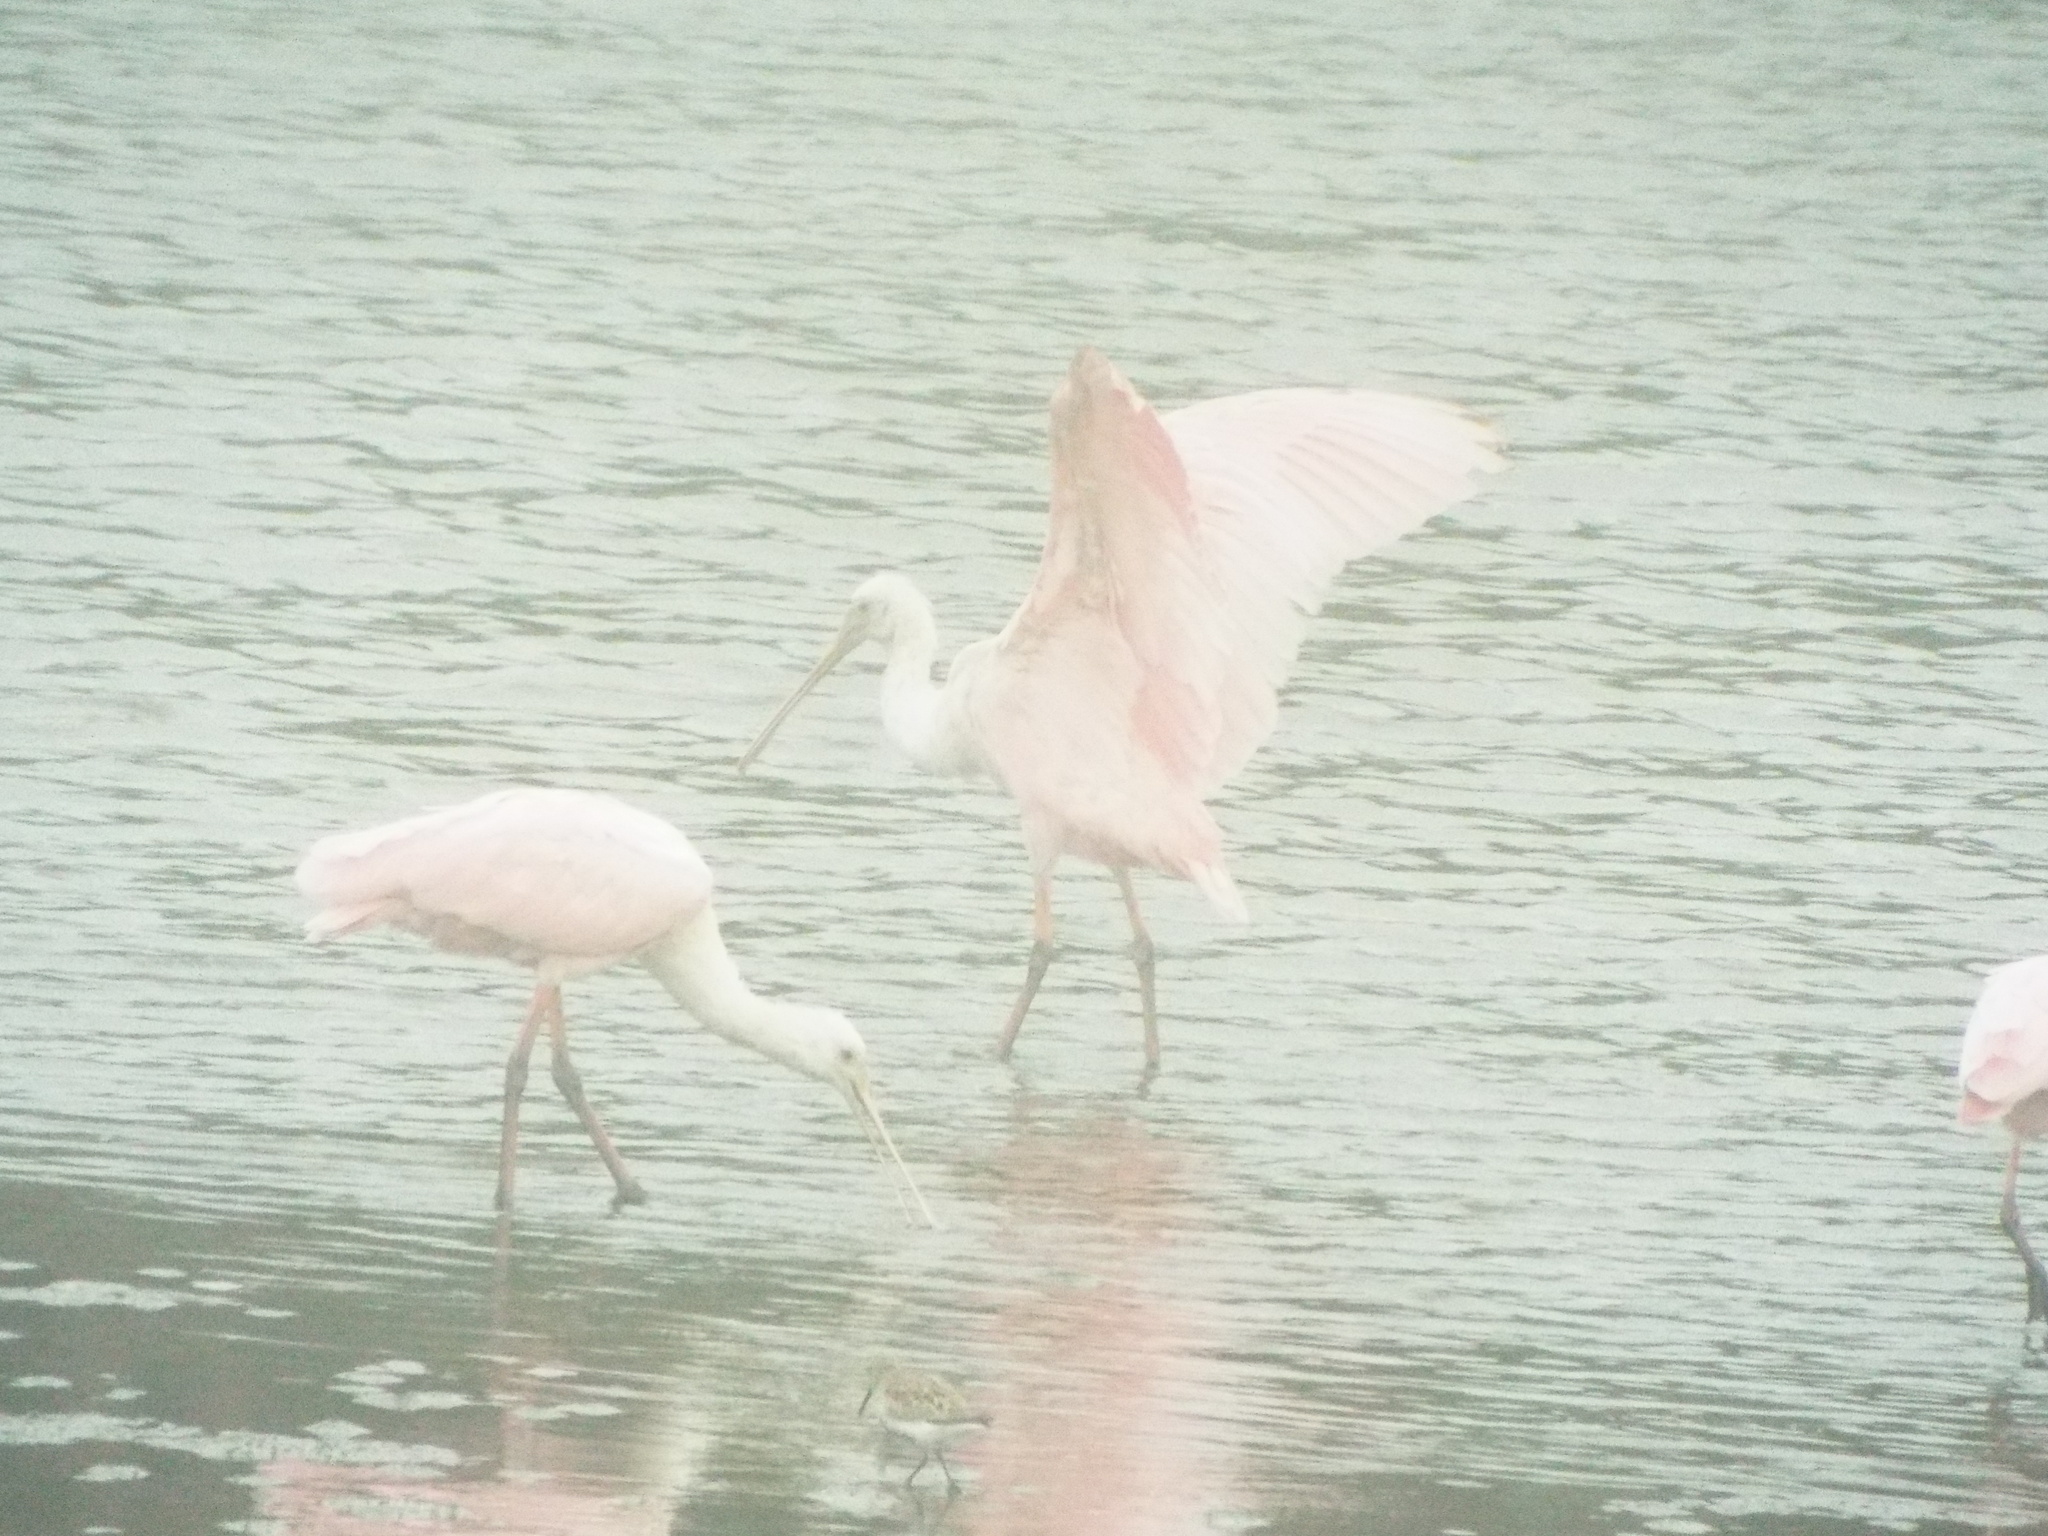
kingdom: Animalia
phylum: Chordata
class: Aves
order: Pelecaniformes
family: Threskiornithidae
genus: Platalea
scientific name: Platalea ajaja
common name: Roseate spoonbill
